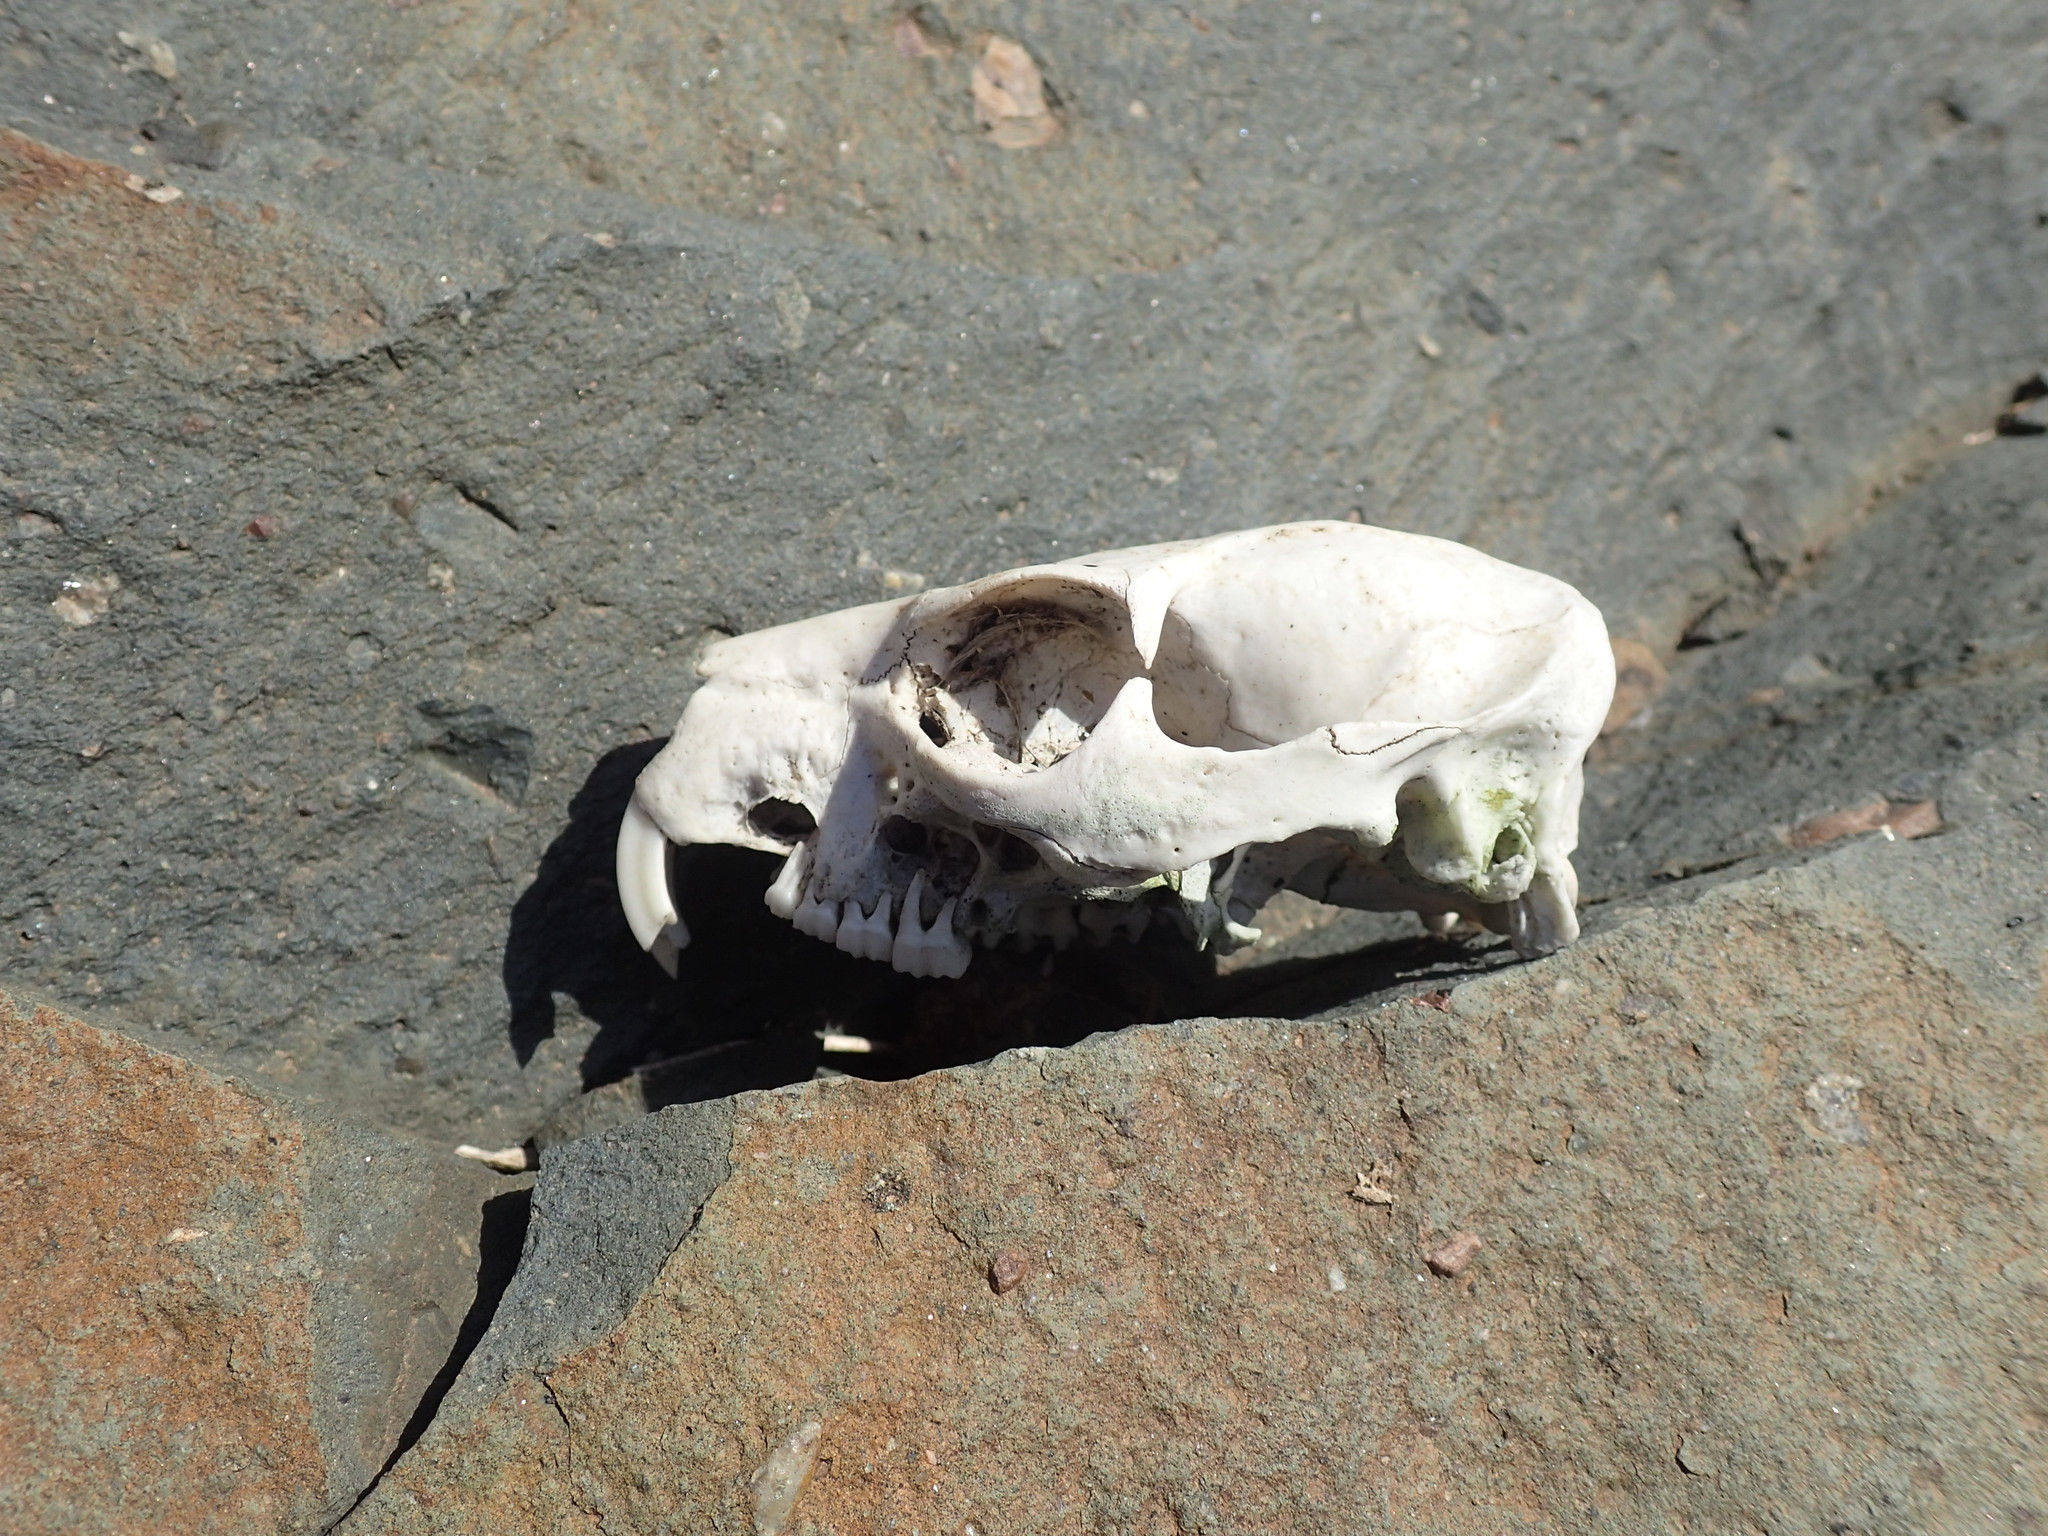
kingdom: Animalia
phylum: Chordata
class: Mammalia
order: Hyracoidea
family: Procaviidae
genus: Procavia
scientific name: Procavia capensis
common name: Rock hyrax
